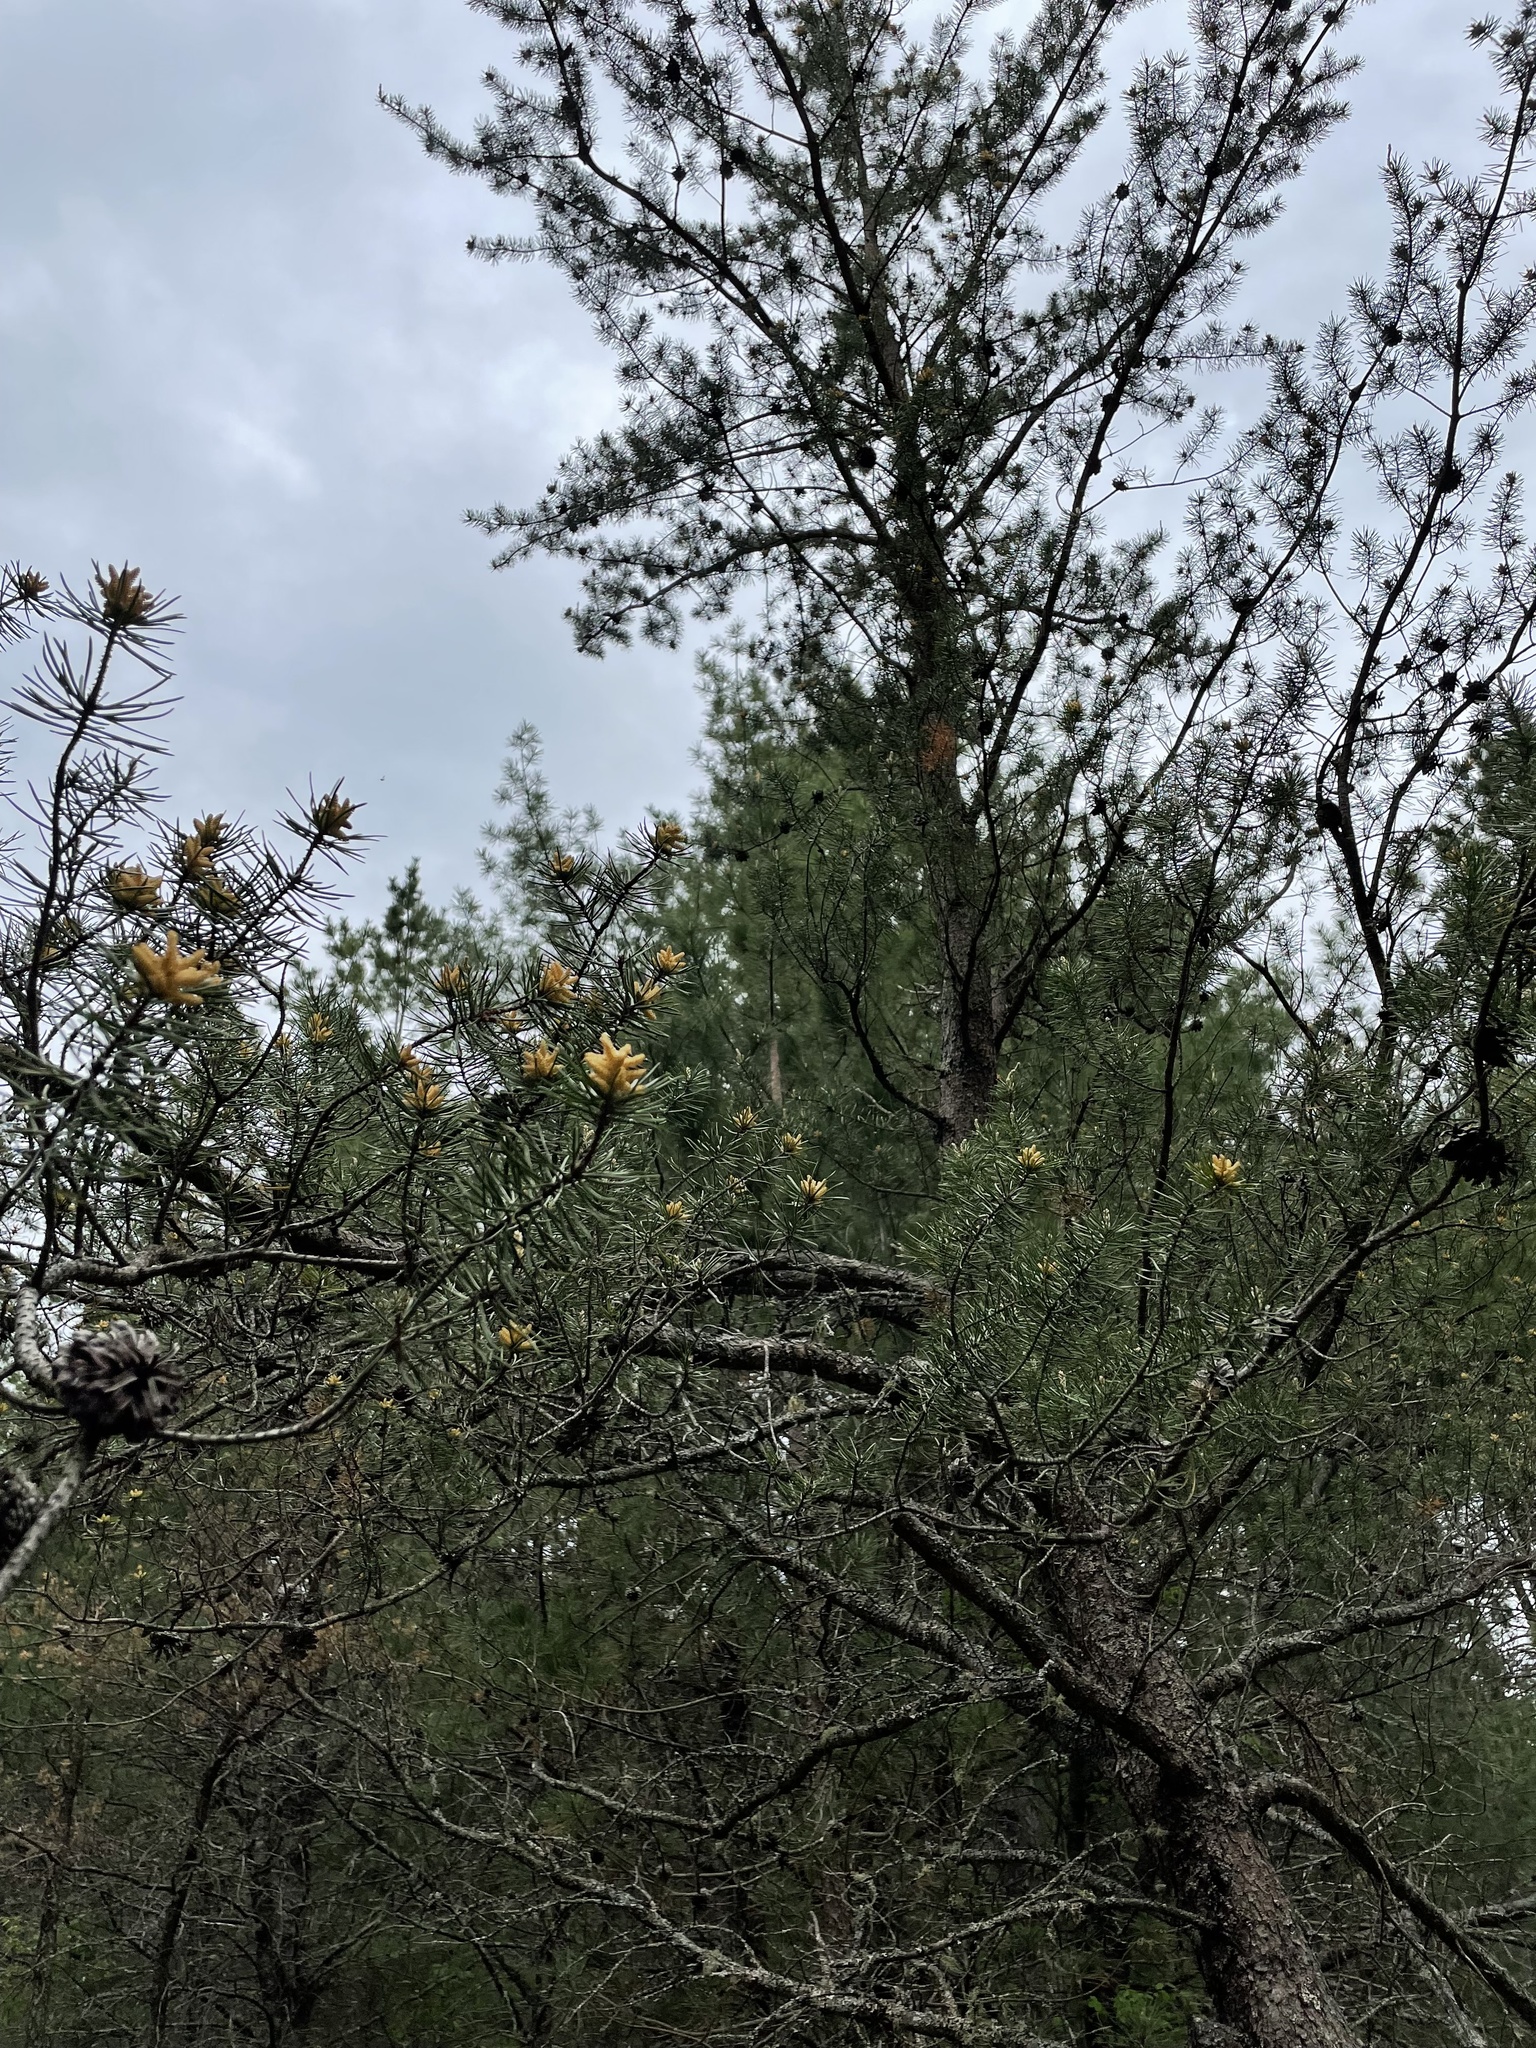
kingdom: Plantae
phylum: Tracheophyta
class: Pinopsida
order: Pinales
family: Pinaceae
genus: Pinus
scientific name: Pinus banksiana
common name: Jack pine
